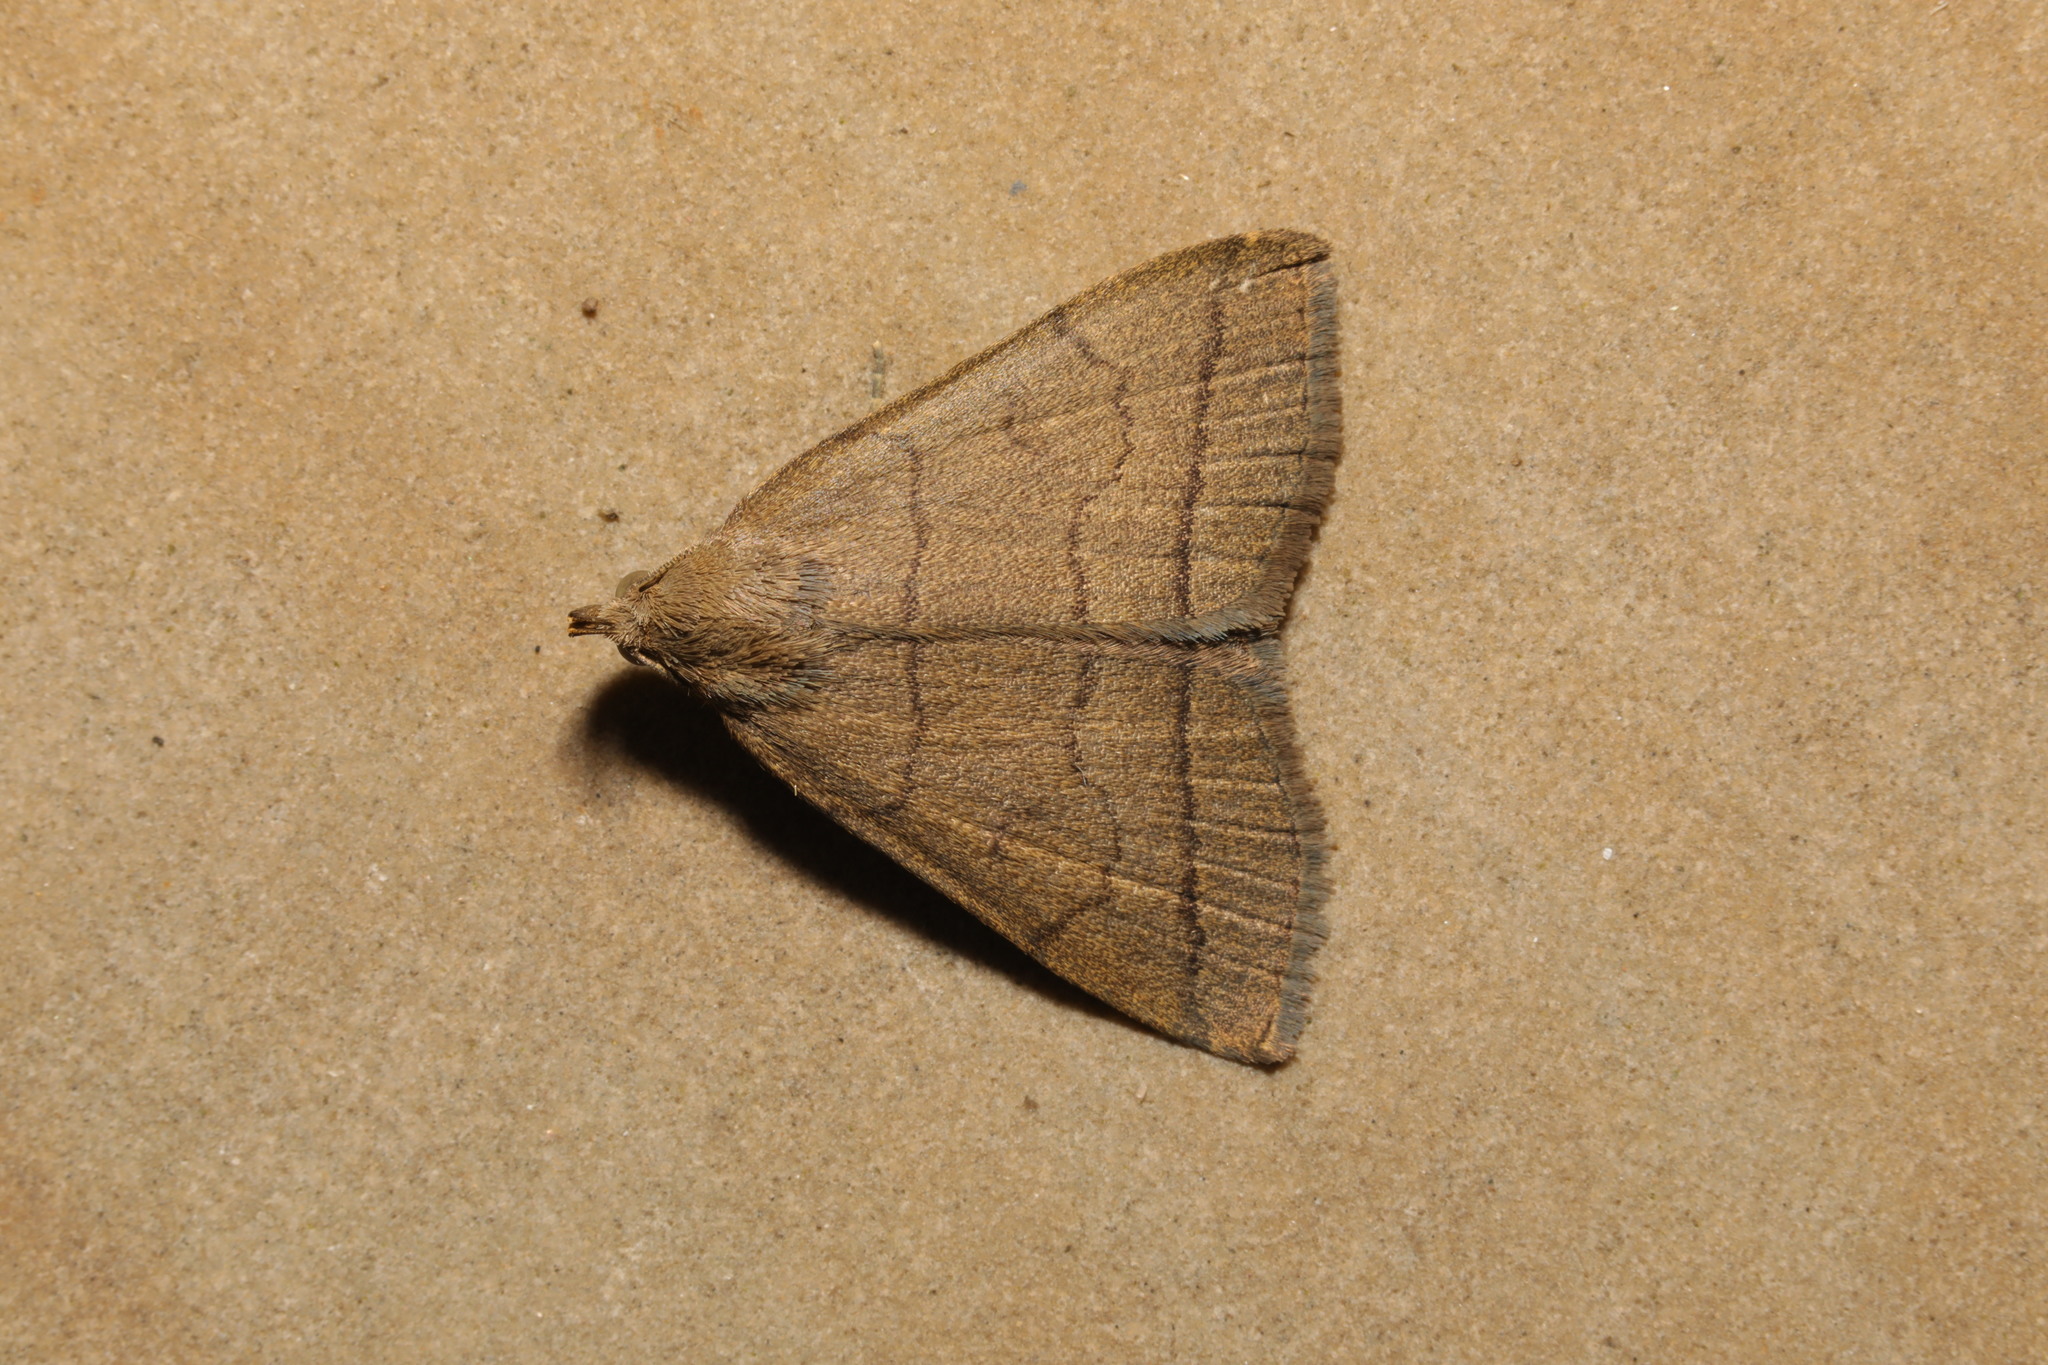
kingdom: Animalia
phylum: Arthropoda
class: Insecta
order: Lepidoptera
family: Erebidae
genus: Herminia
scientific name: Herminia tarsipennalis
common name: Fan-foot
